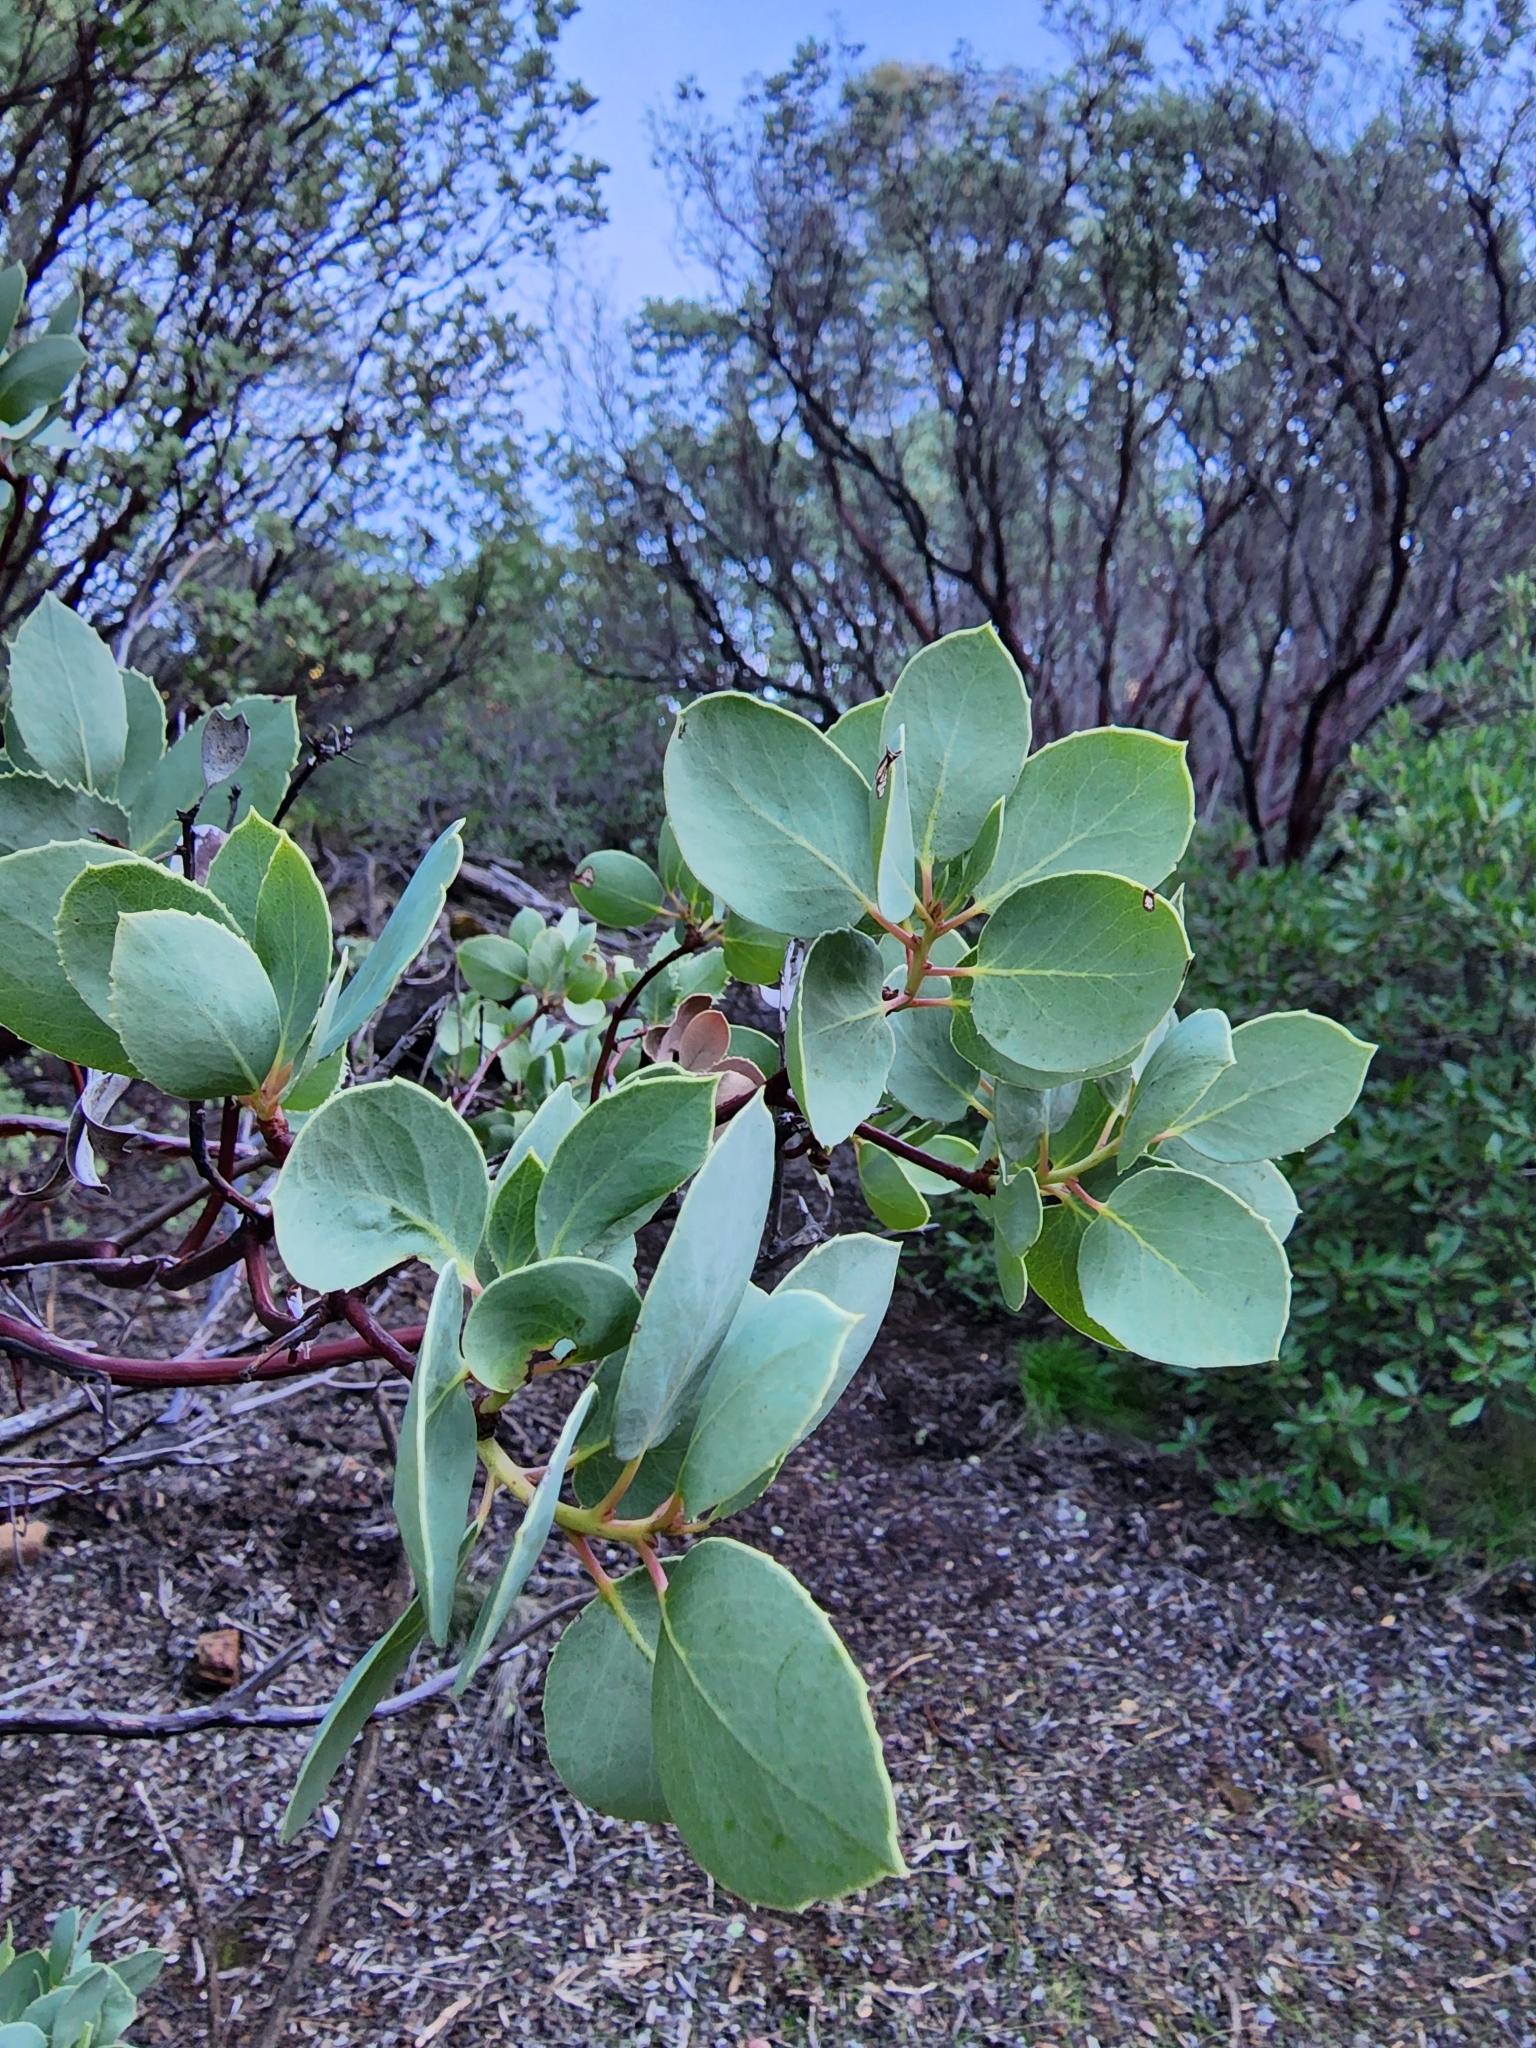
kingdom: Plantae
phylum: Tracheophyta
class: Magnoliopsida
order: Ericales
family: Ericaceae
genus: Arctostaphylos
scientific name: Arctostaphylos glauca
